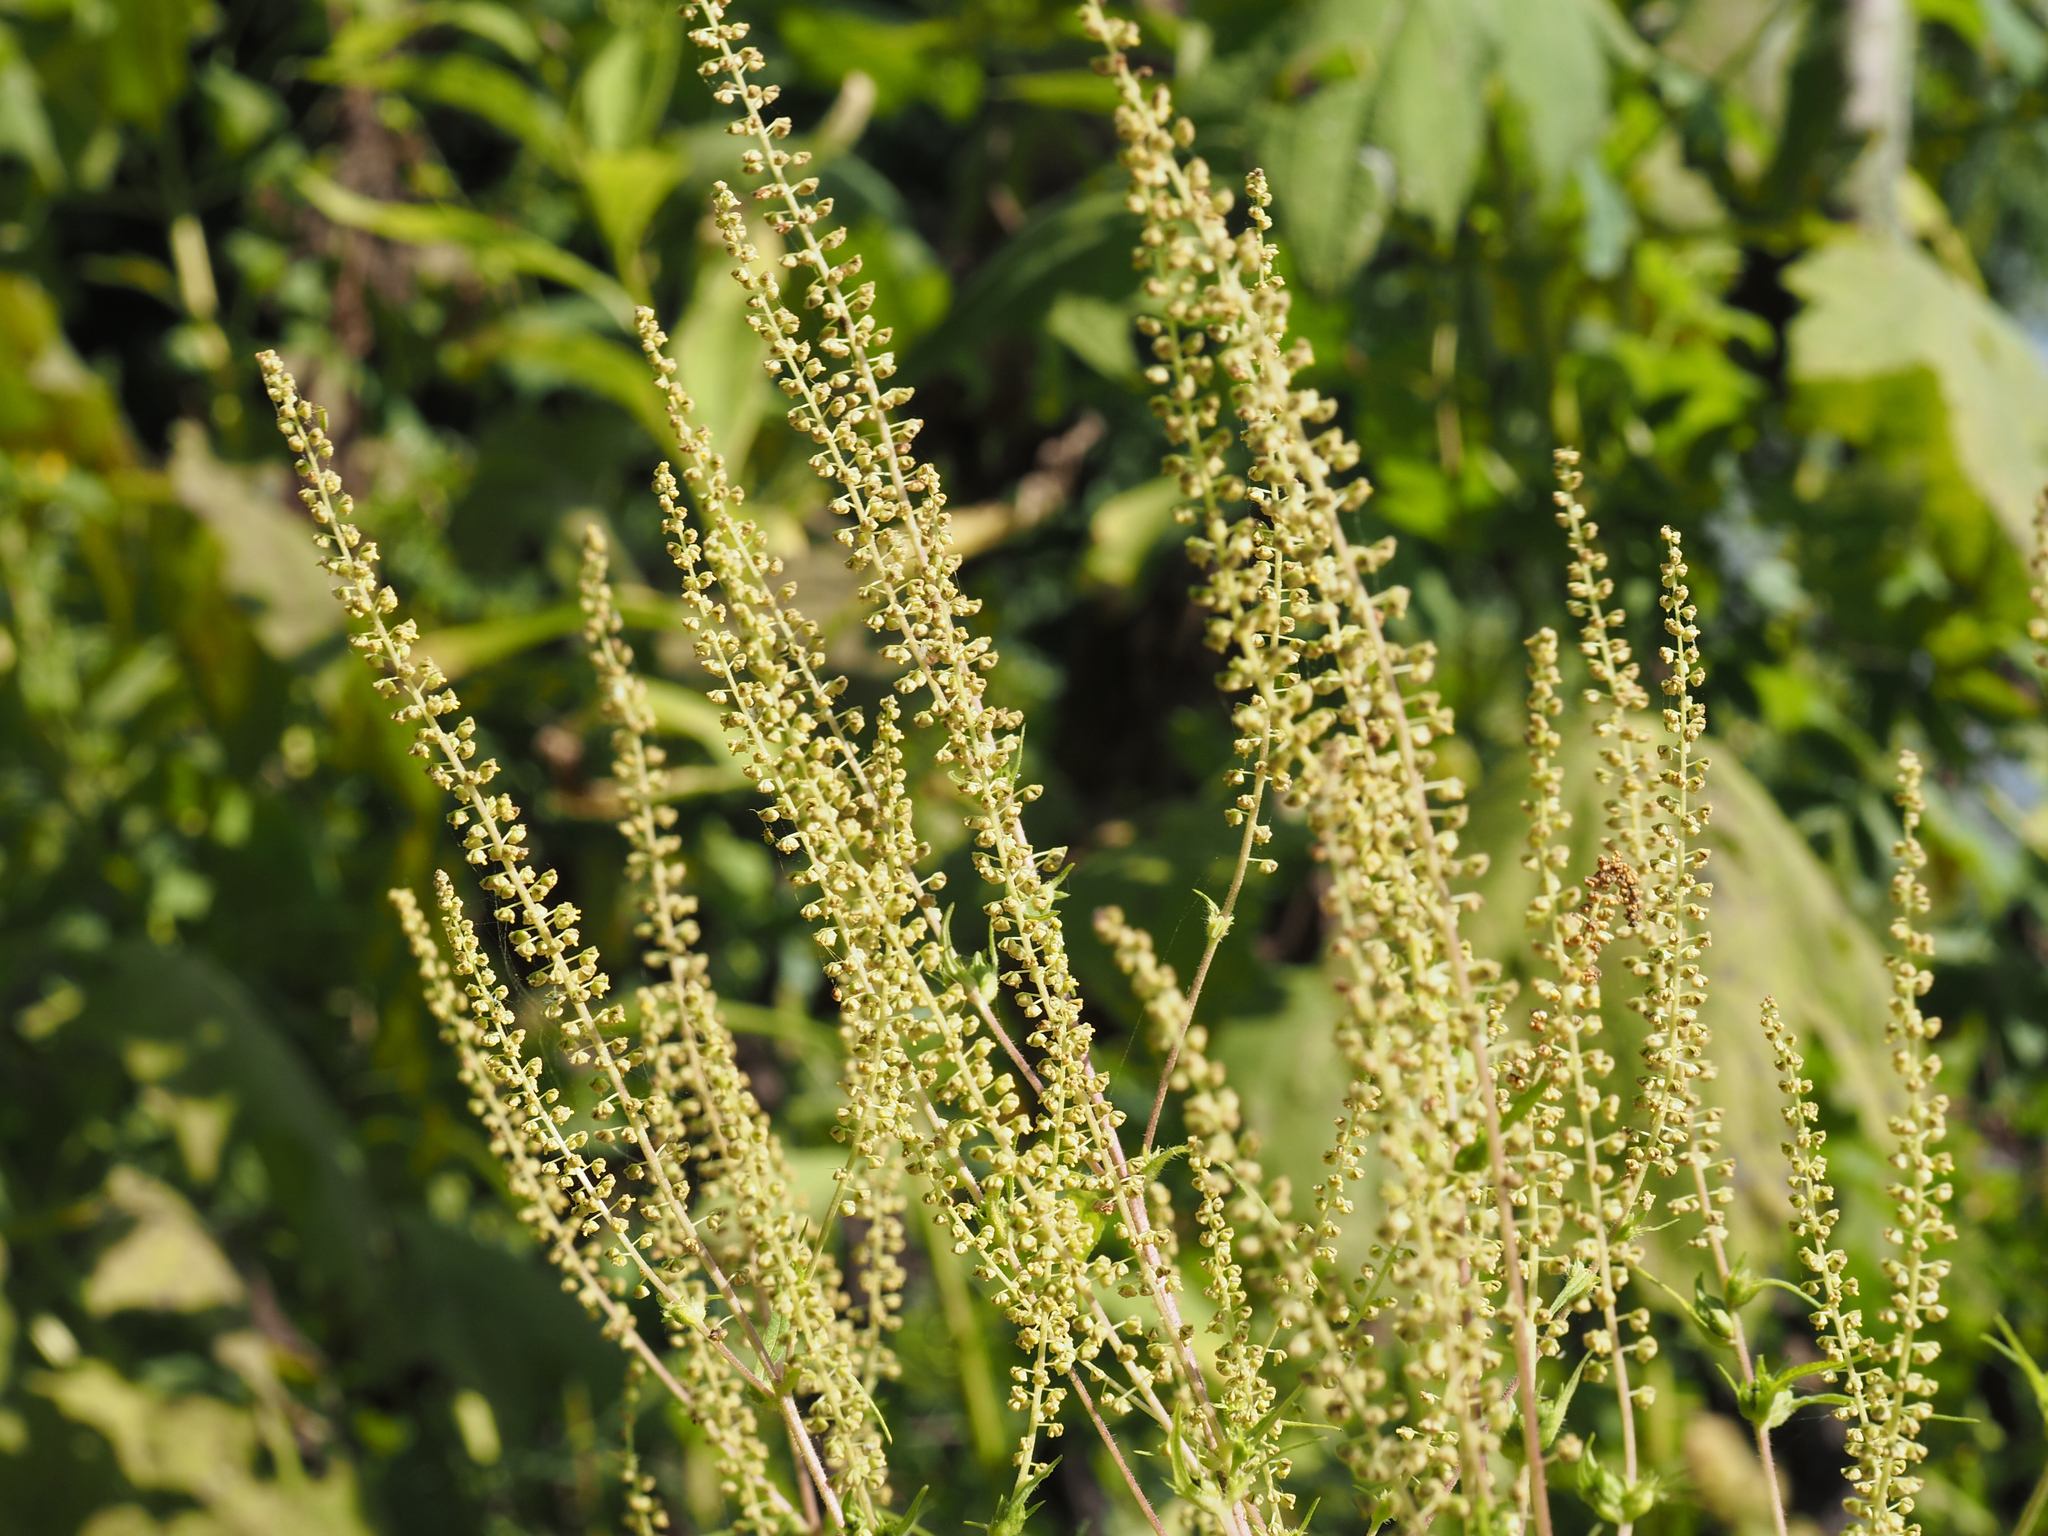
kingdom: Plantae
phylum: Tracheophyta
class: Magnoliopsida
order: Asterales
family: Asteraceae
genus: Ambrosia
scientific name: Ambrosia trifida
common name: Giant ragweed
